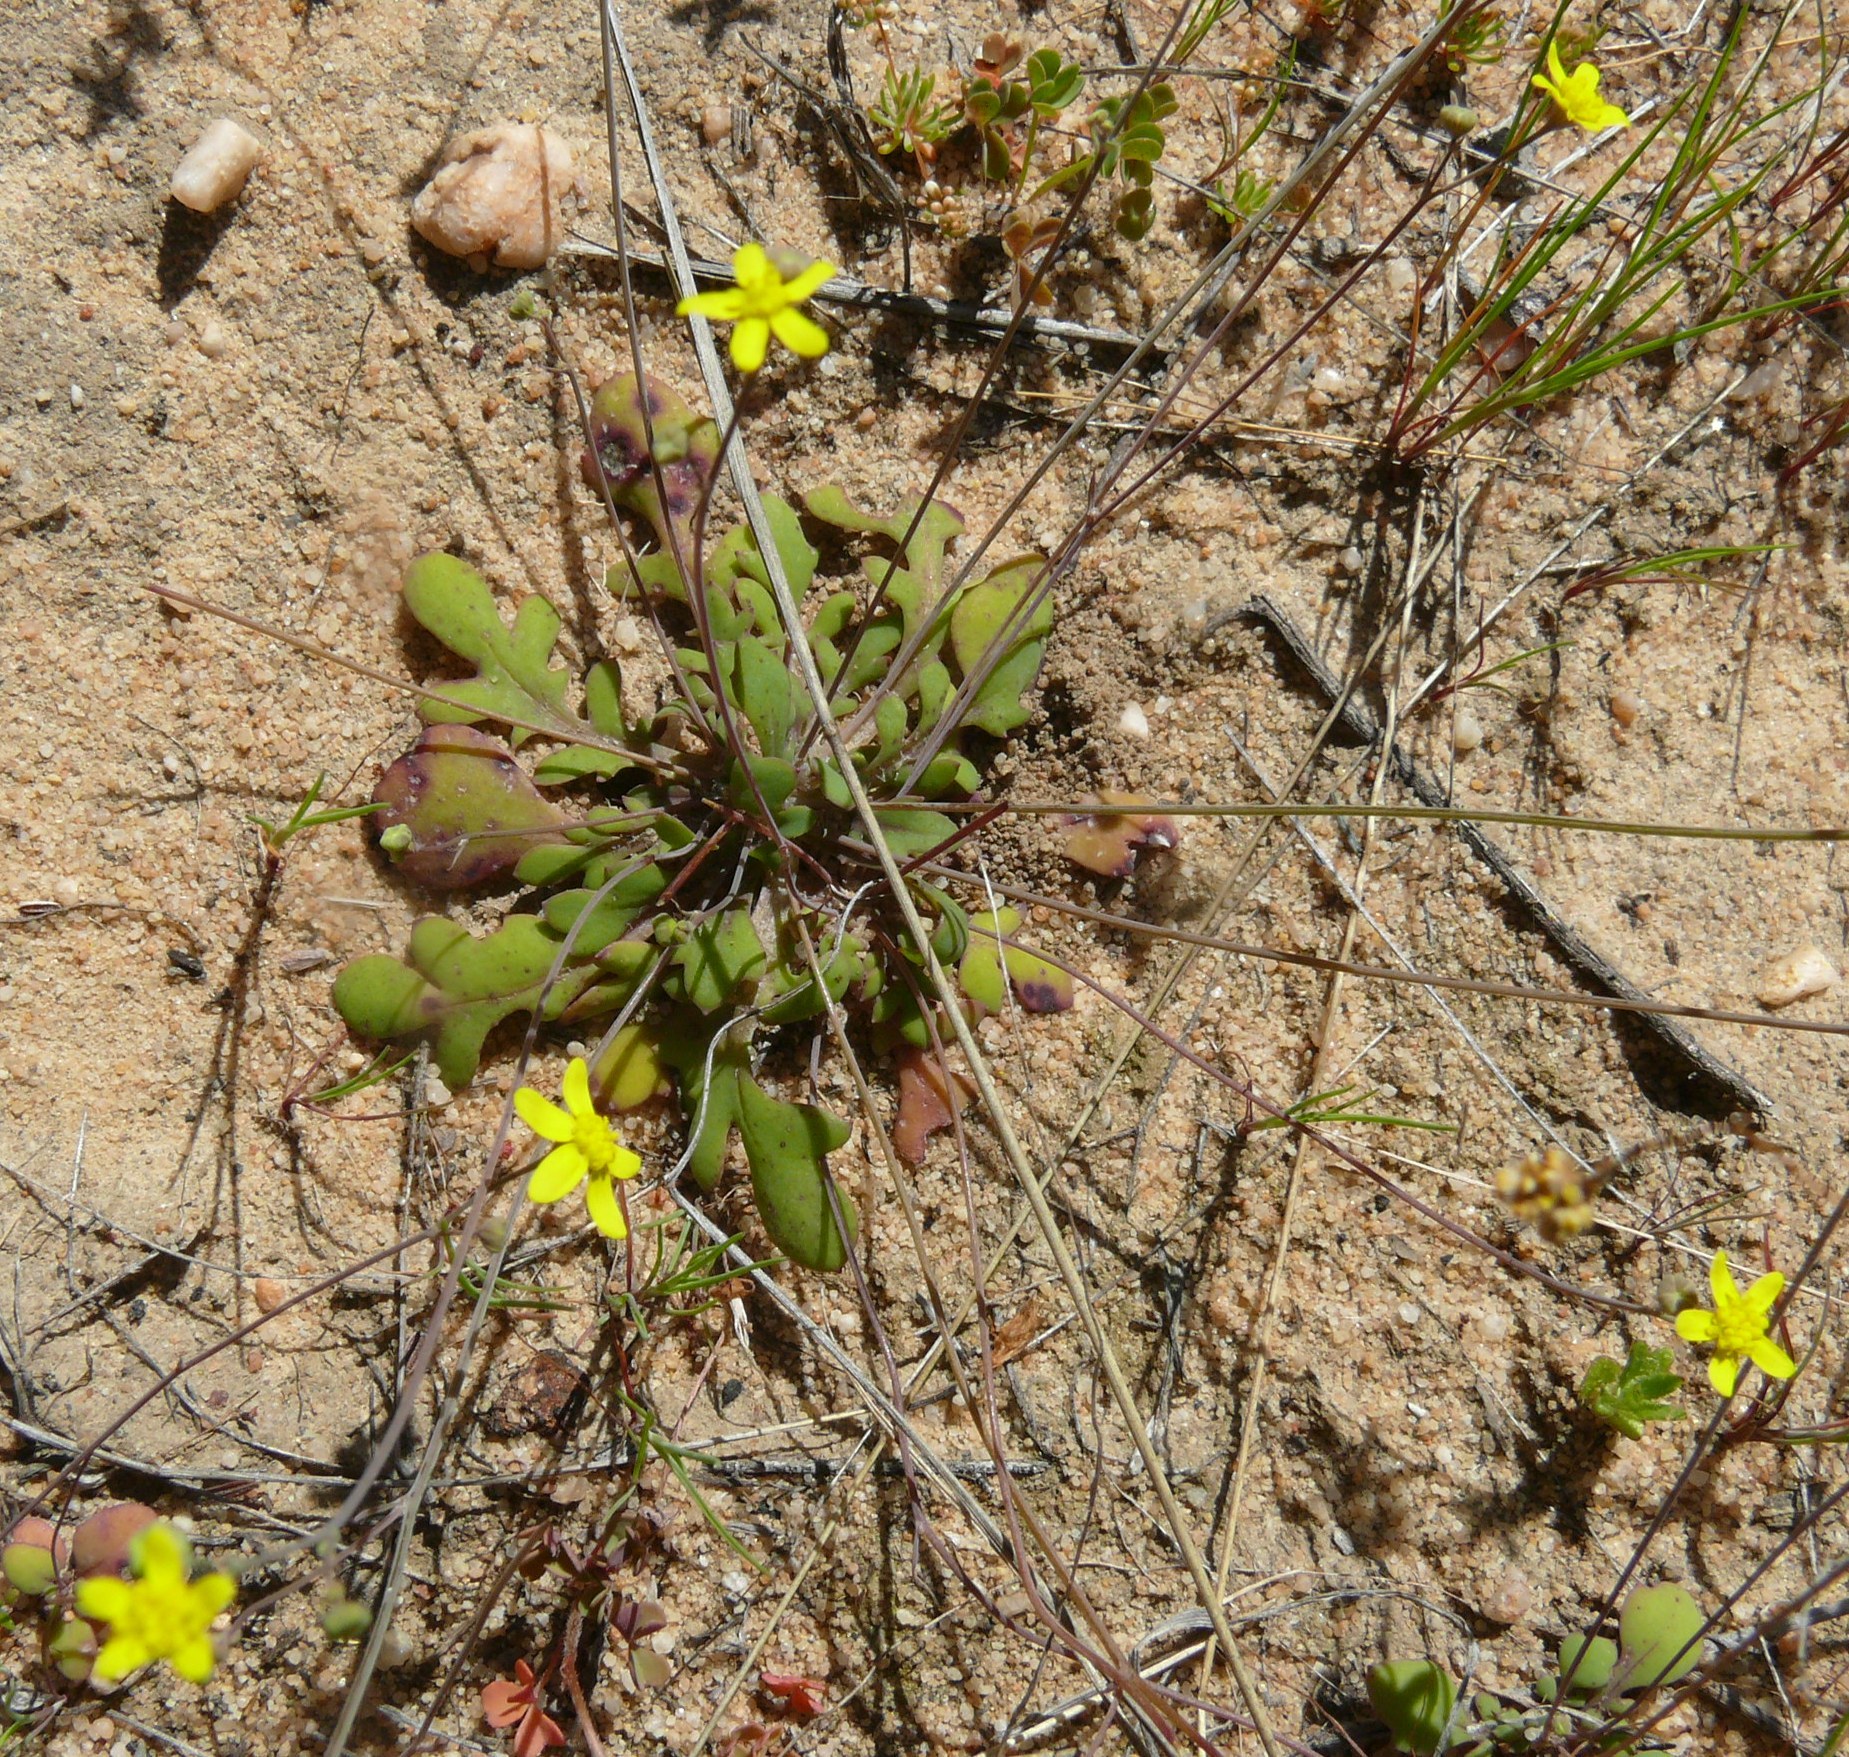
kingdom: Plantae
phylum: Tracheophyta
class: Magnoliopsida
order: Asterales
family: Asteraceae
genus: Gymnodiscus
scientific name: Gymnodiscus capillaris
